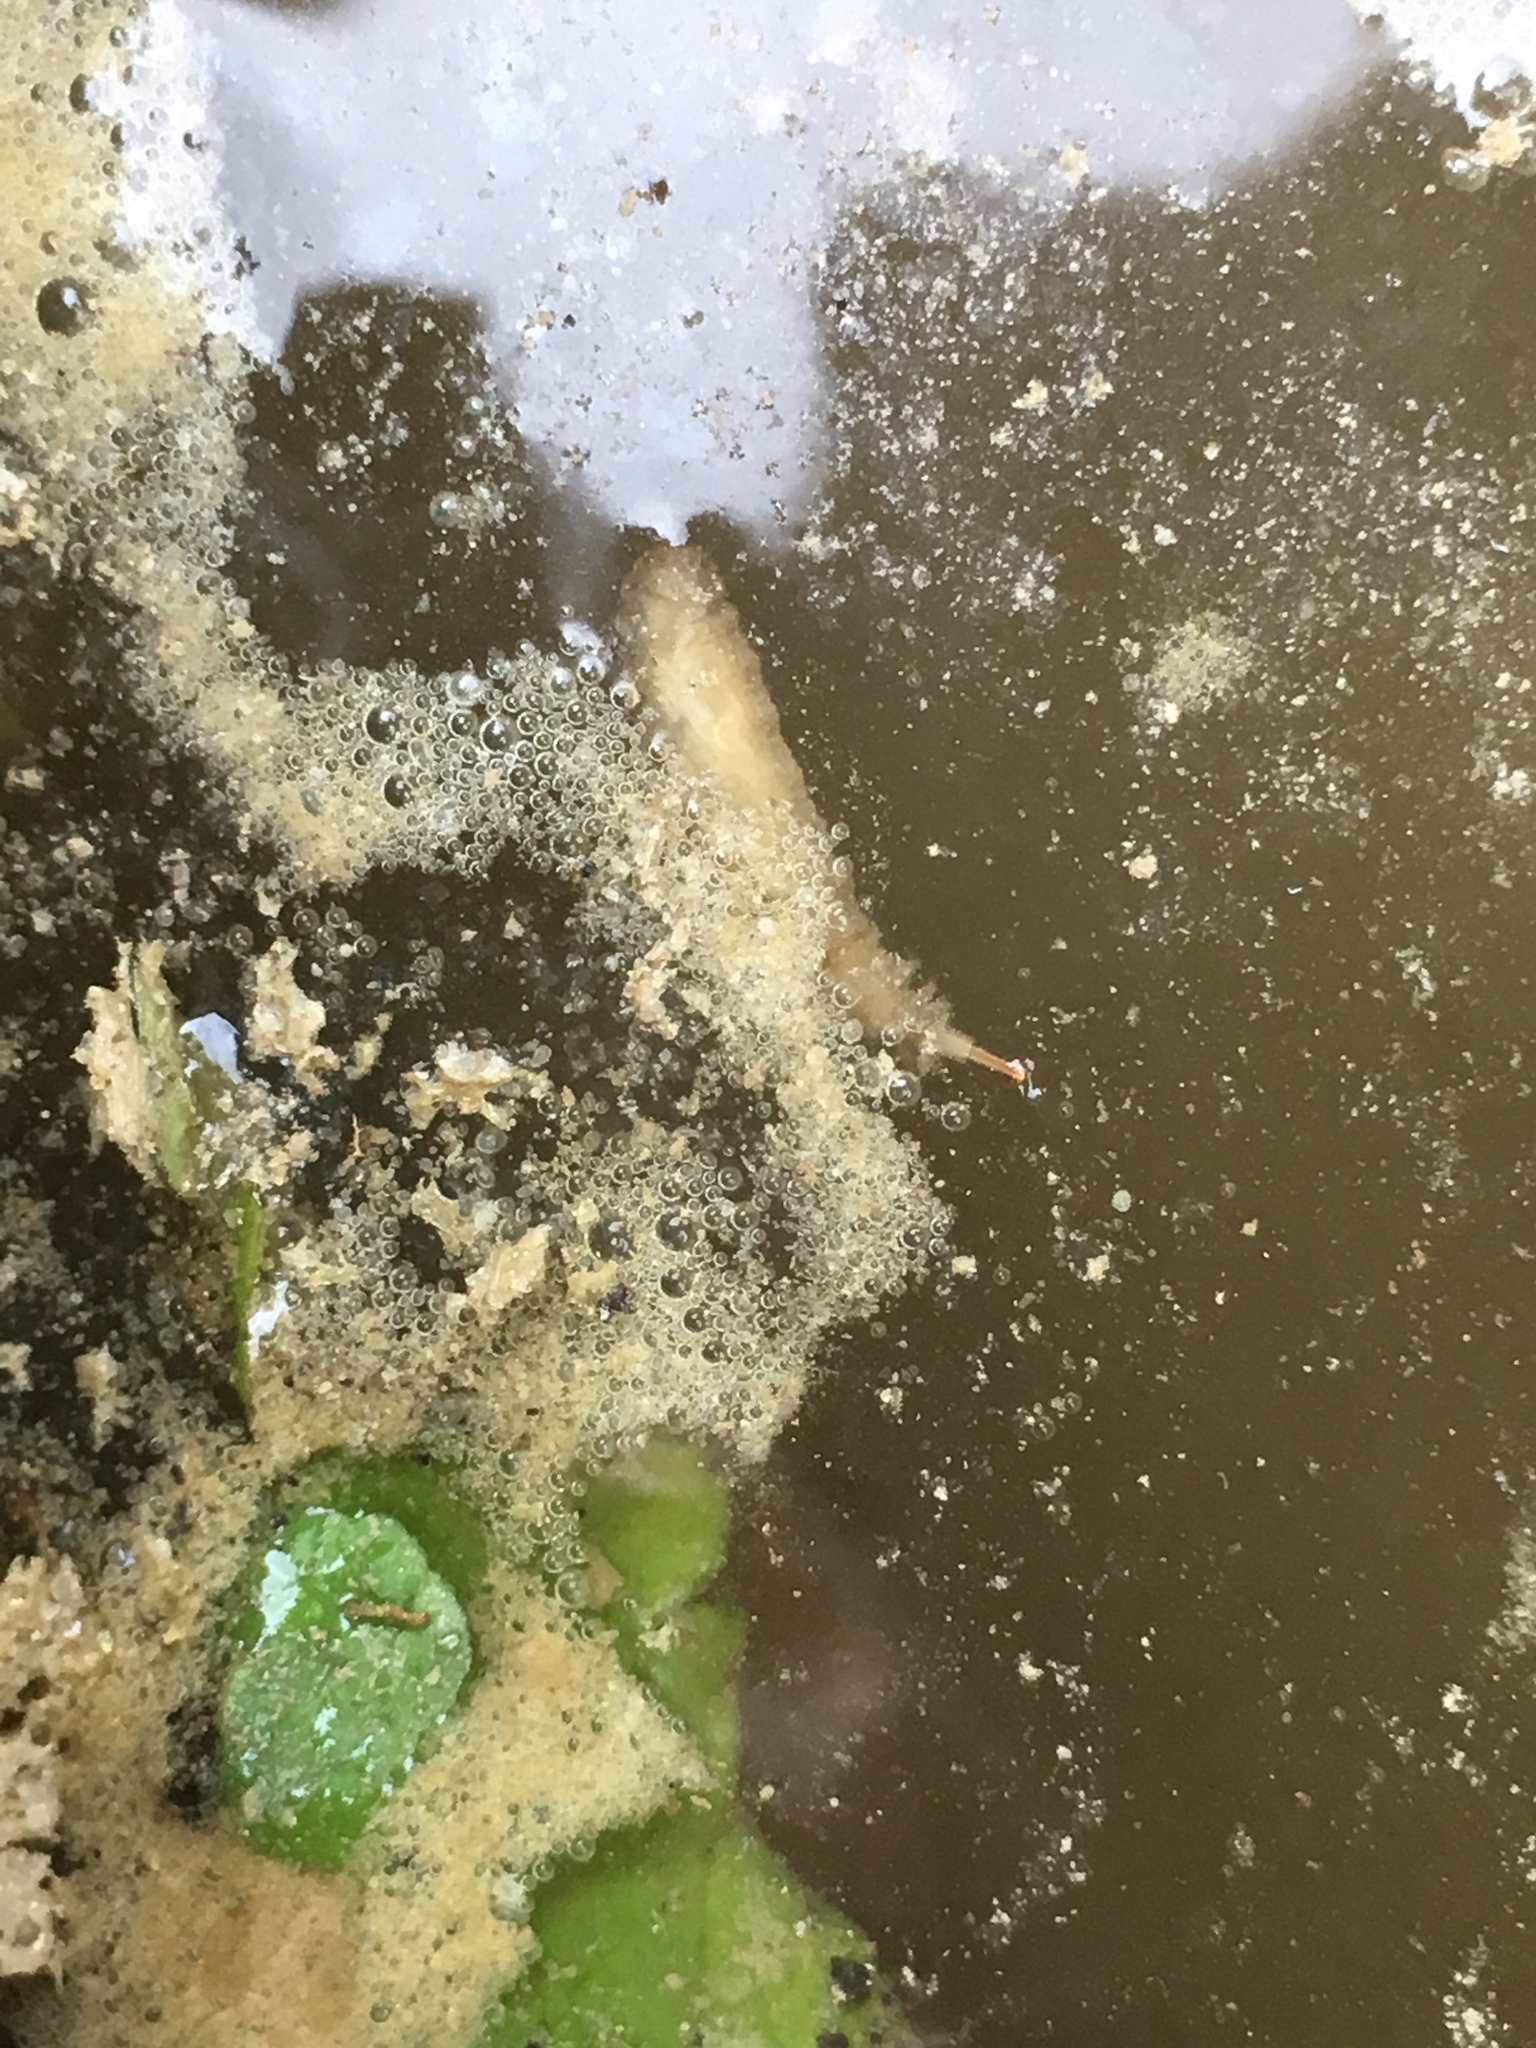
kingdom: Animalia
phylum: Arthropoda
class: Insecta
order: Diptera
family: Syrphidae
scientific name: Syrphidae
